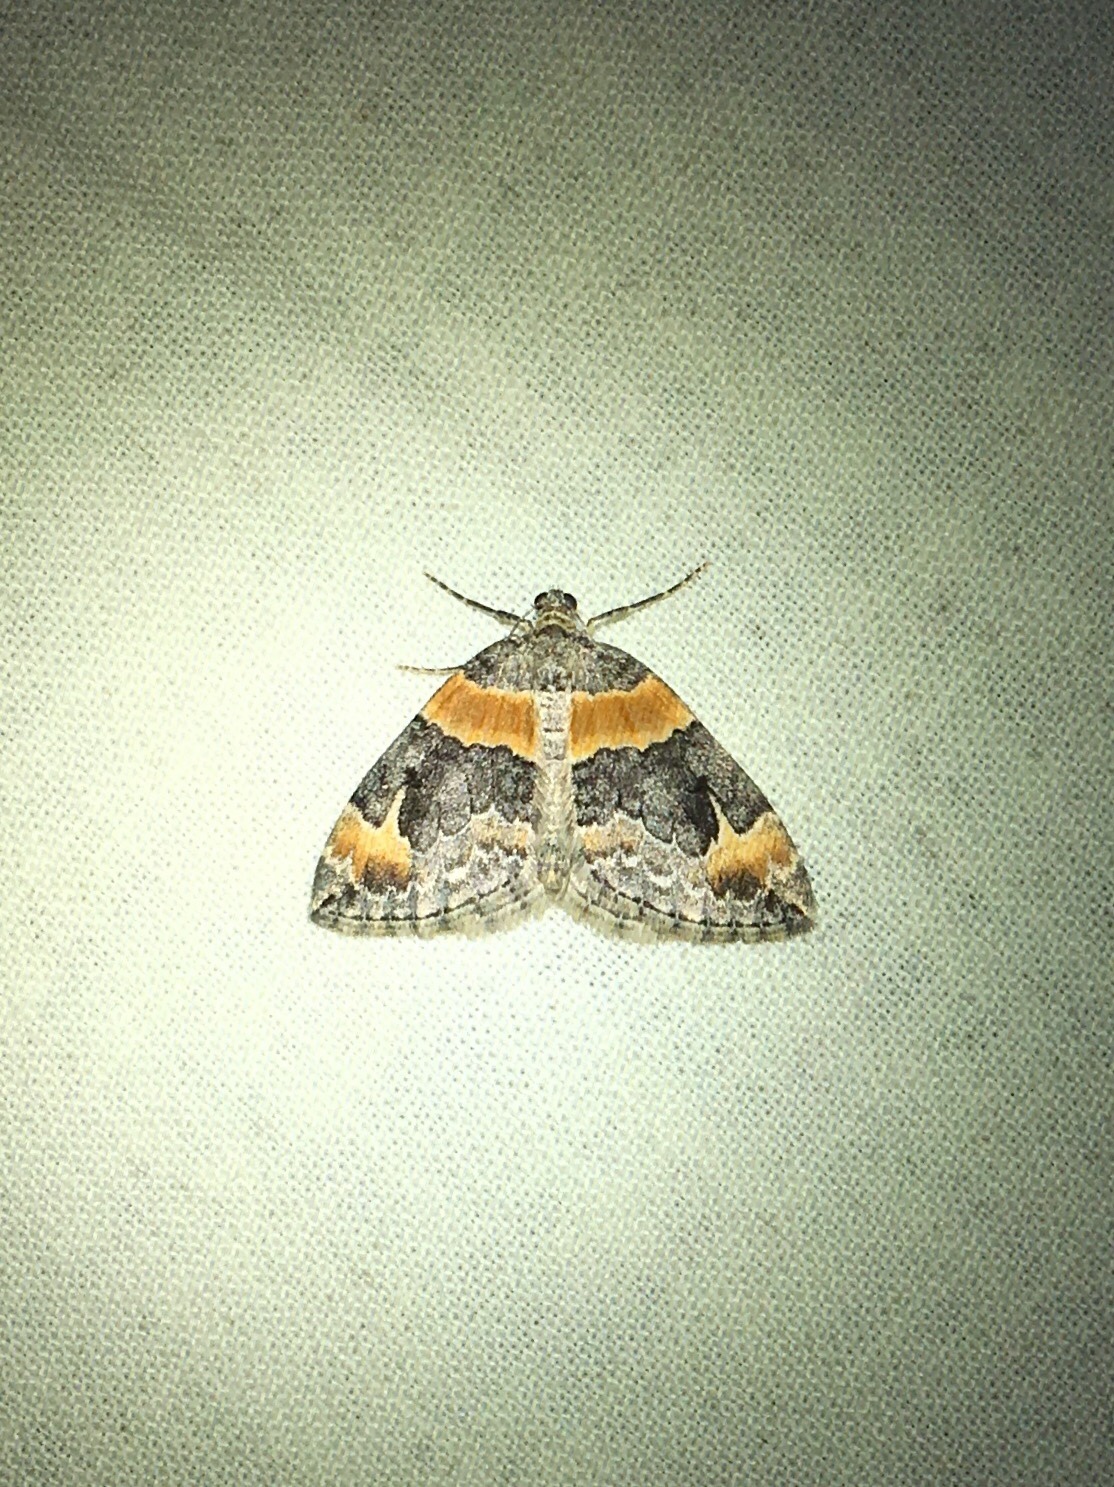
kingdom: Animalia
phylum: Arthropoda
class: Insecta
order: Lepidoptera
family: Geometridae
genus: Dysstroma
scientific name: Dysstroma hersiliata
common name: Orange-barred carpet
